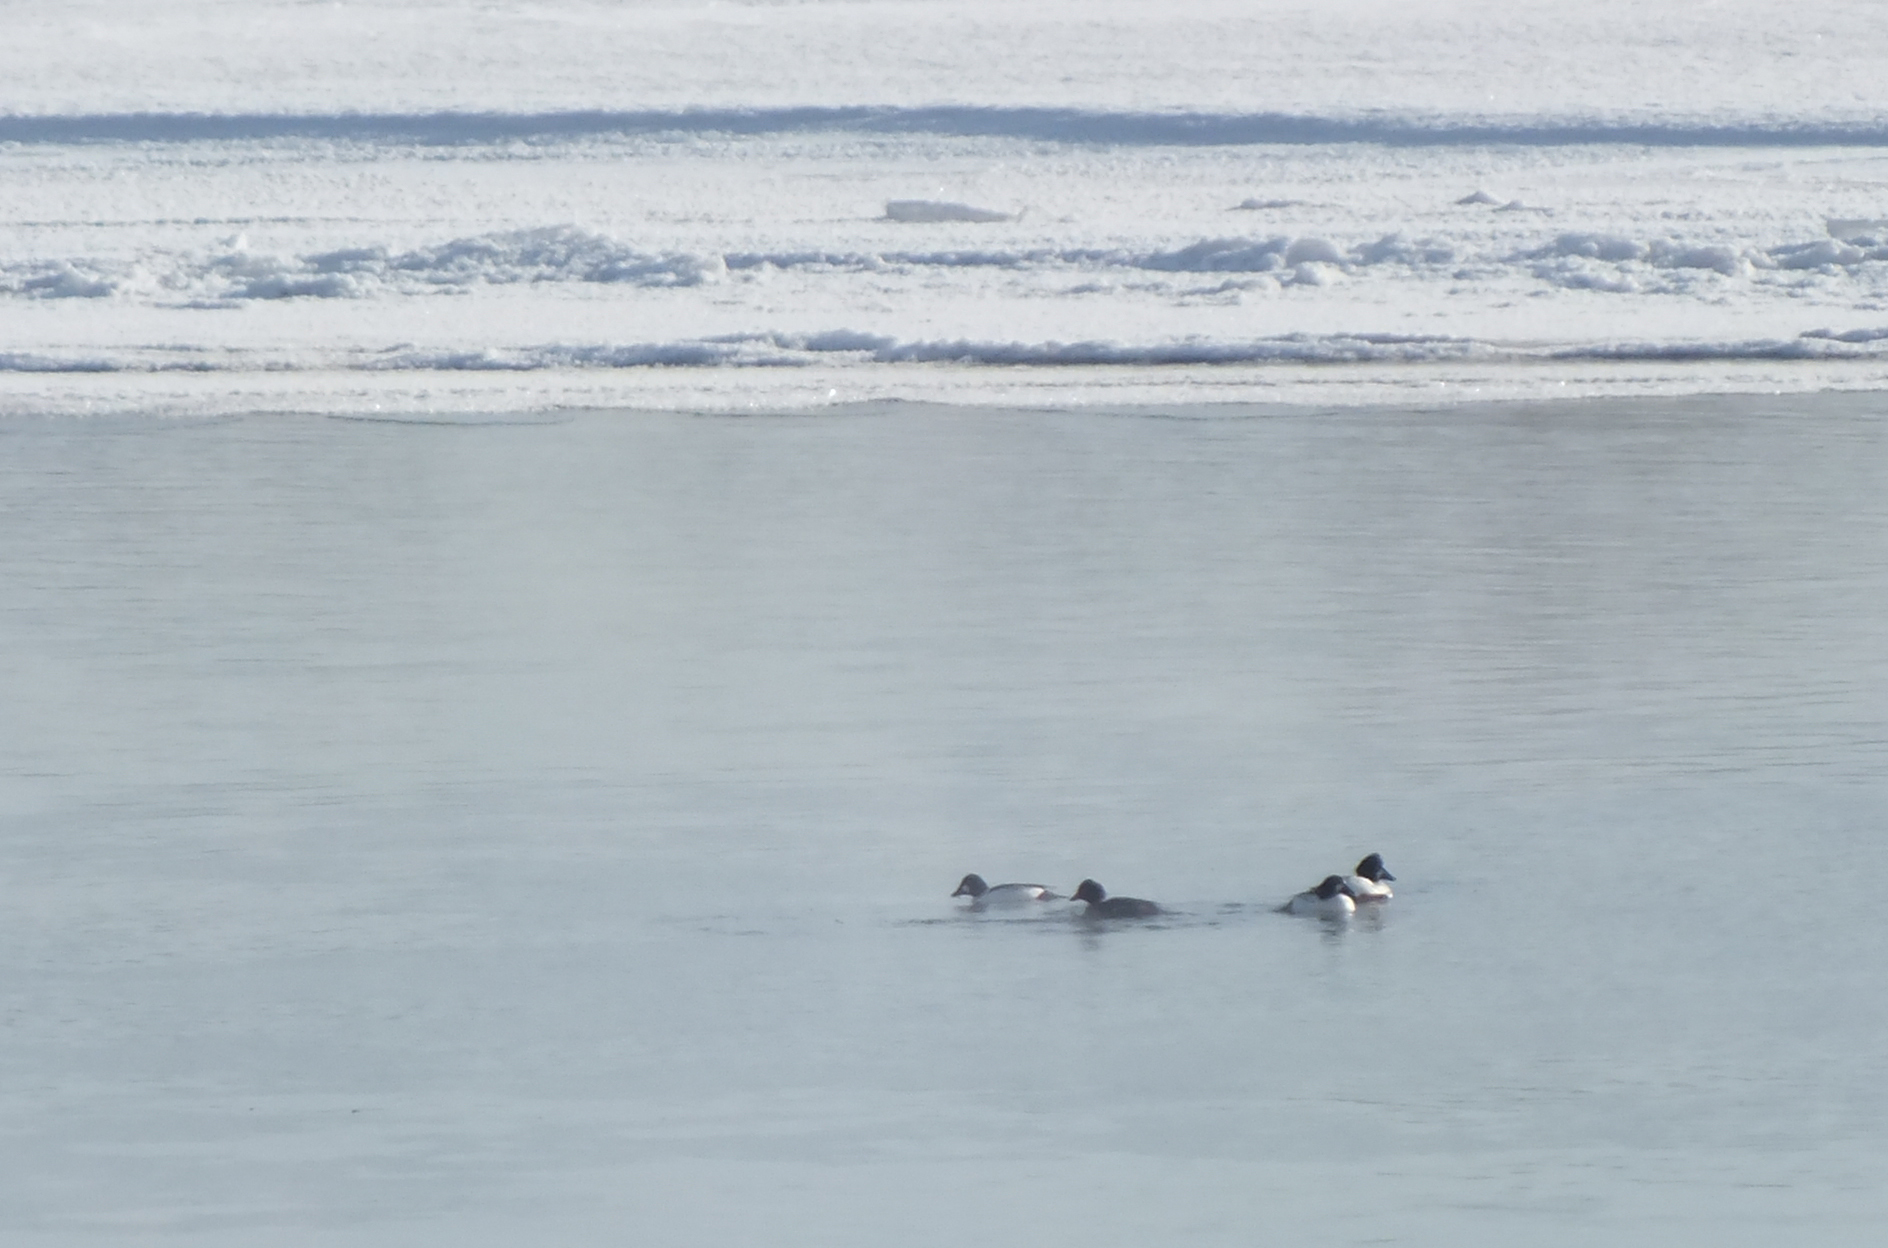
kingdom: Animalia
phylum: Chordata
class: Aves
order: Anseriformes
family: Anatidae
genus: Bucephala
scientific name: Bucephala clangula
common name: Common goldeneye
